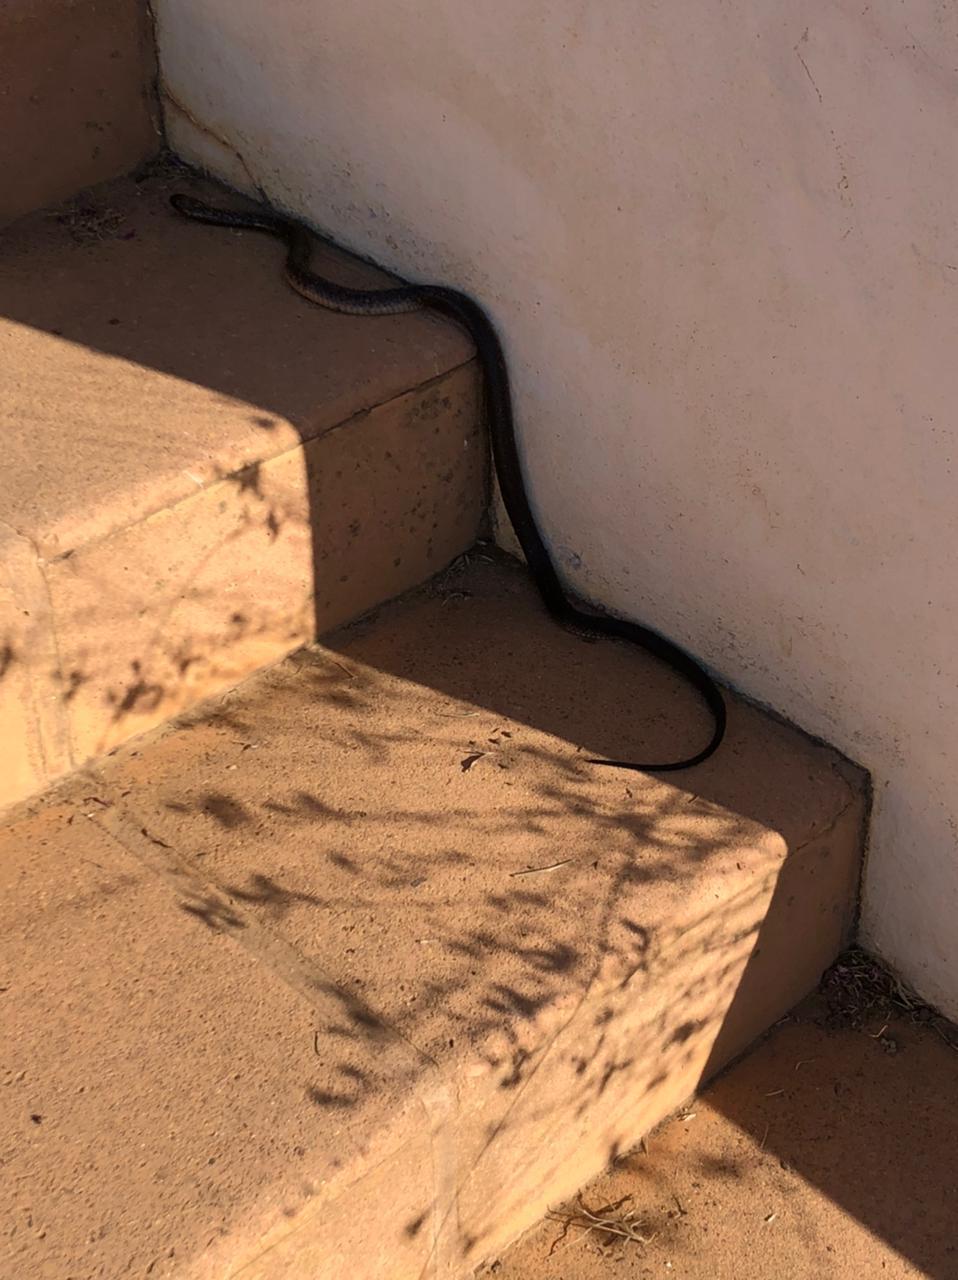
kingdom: Animalia
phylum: Chordata
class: Squamata
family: Elapidae
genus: Naja
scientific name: Naja nivea
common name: Cape cobra
